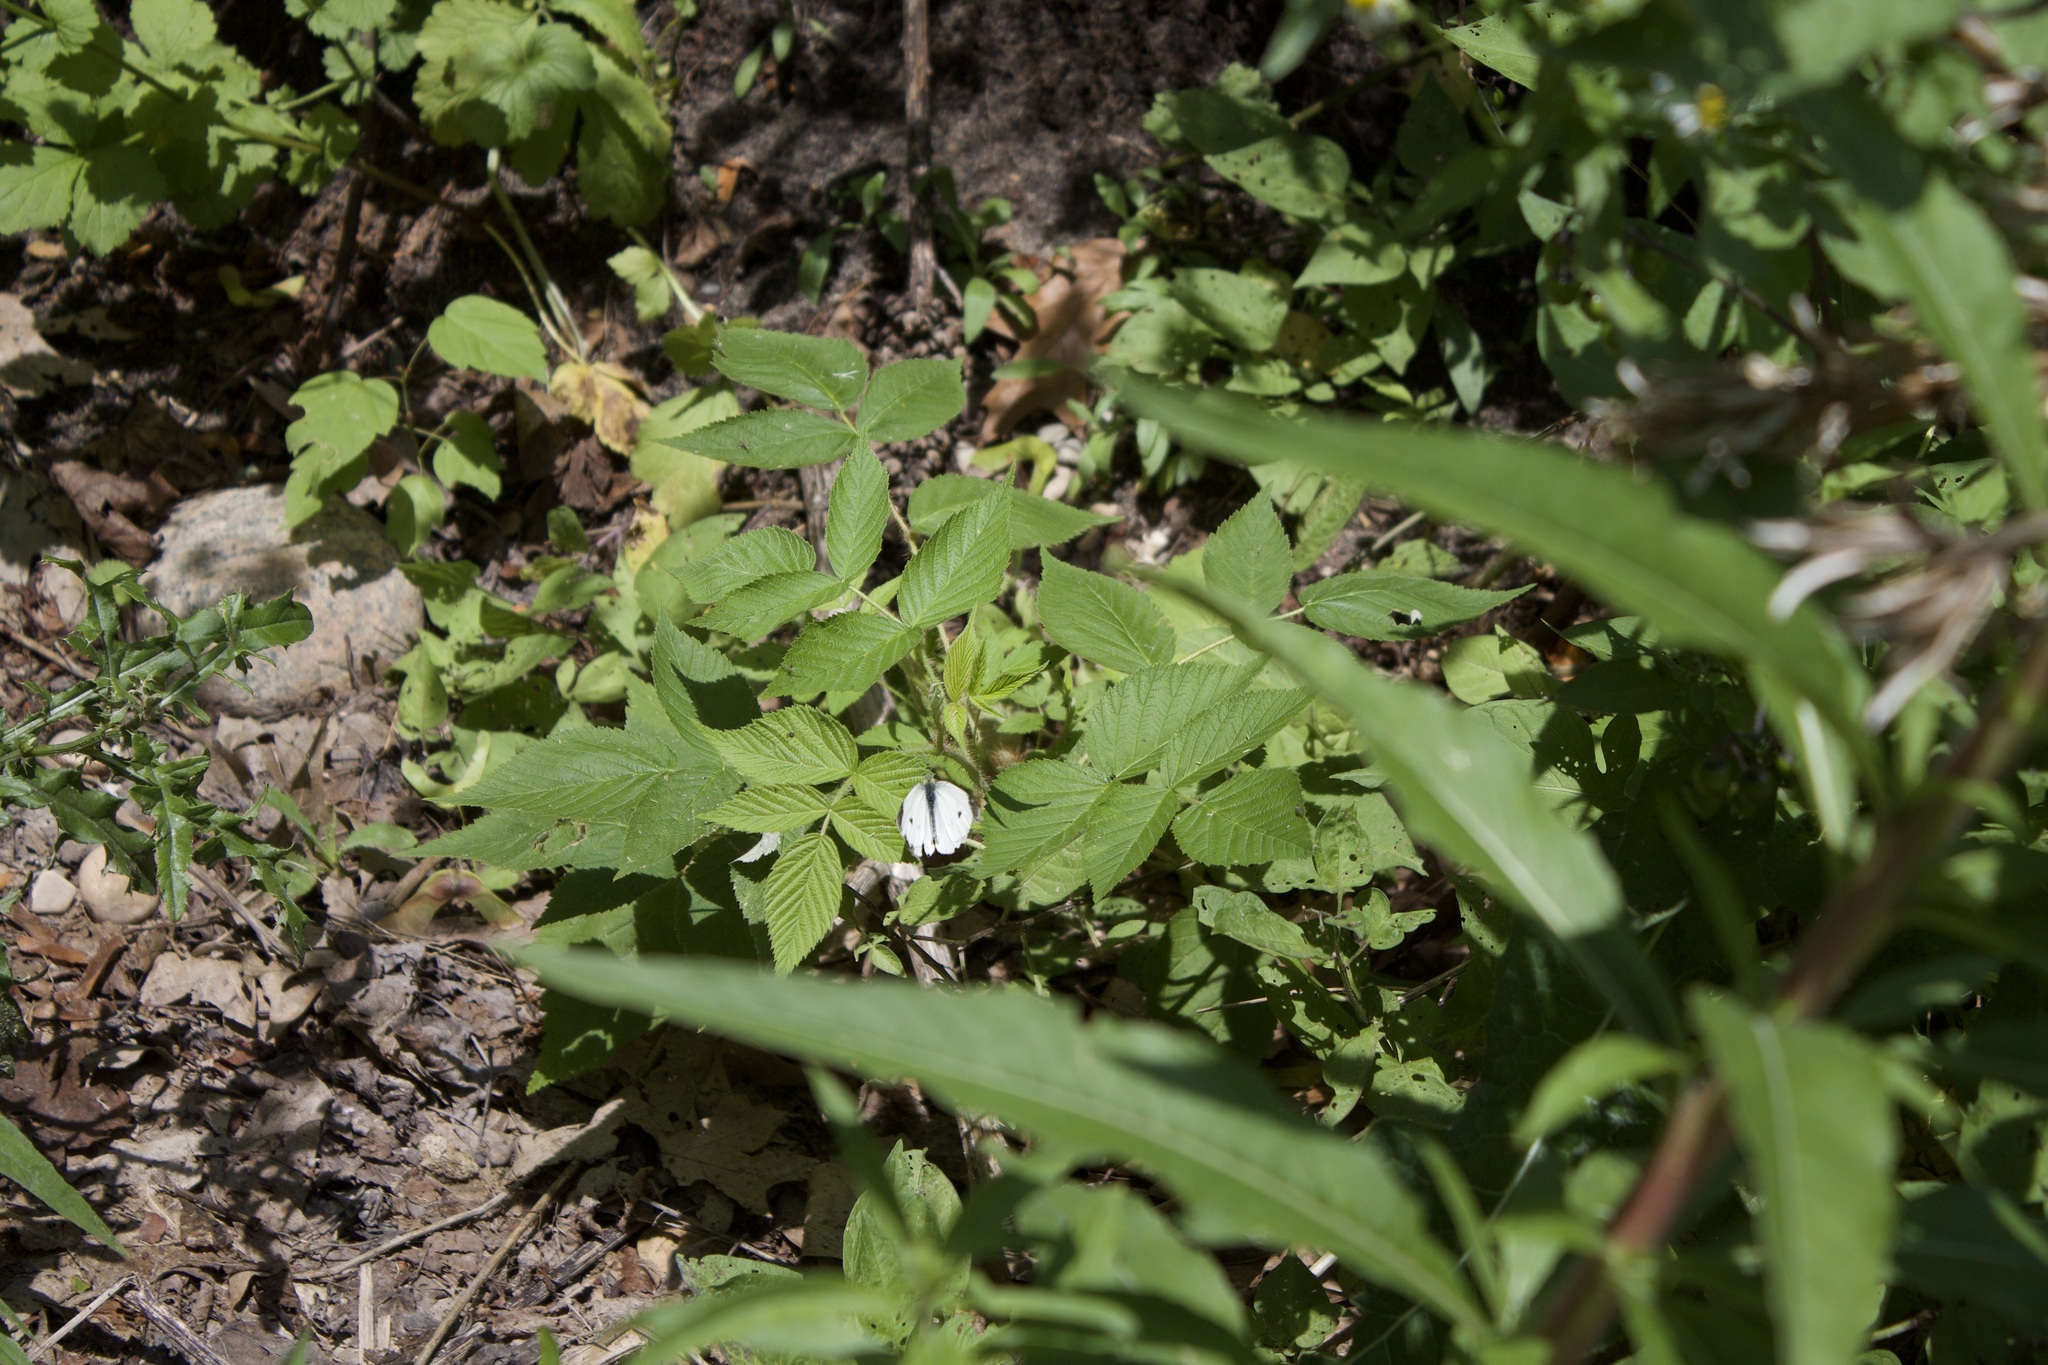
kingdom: Animalia
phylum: Arthropoda
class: Insecta
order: Lepidoptera
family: Pieridae
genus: Pieris
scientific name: Pieris rapae
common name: Small white
